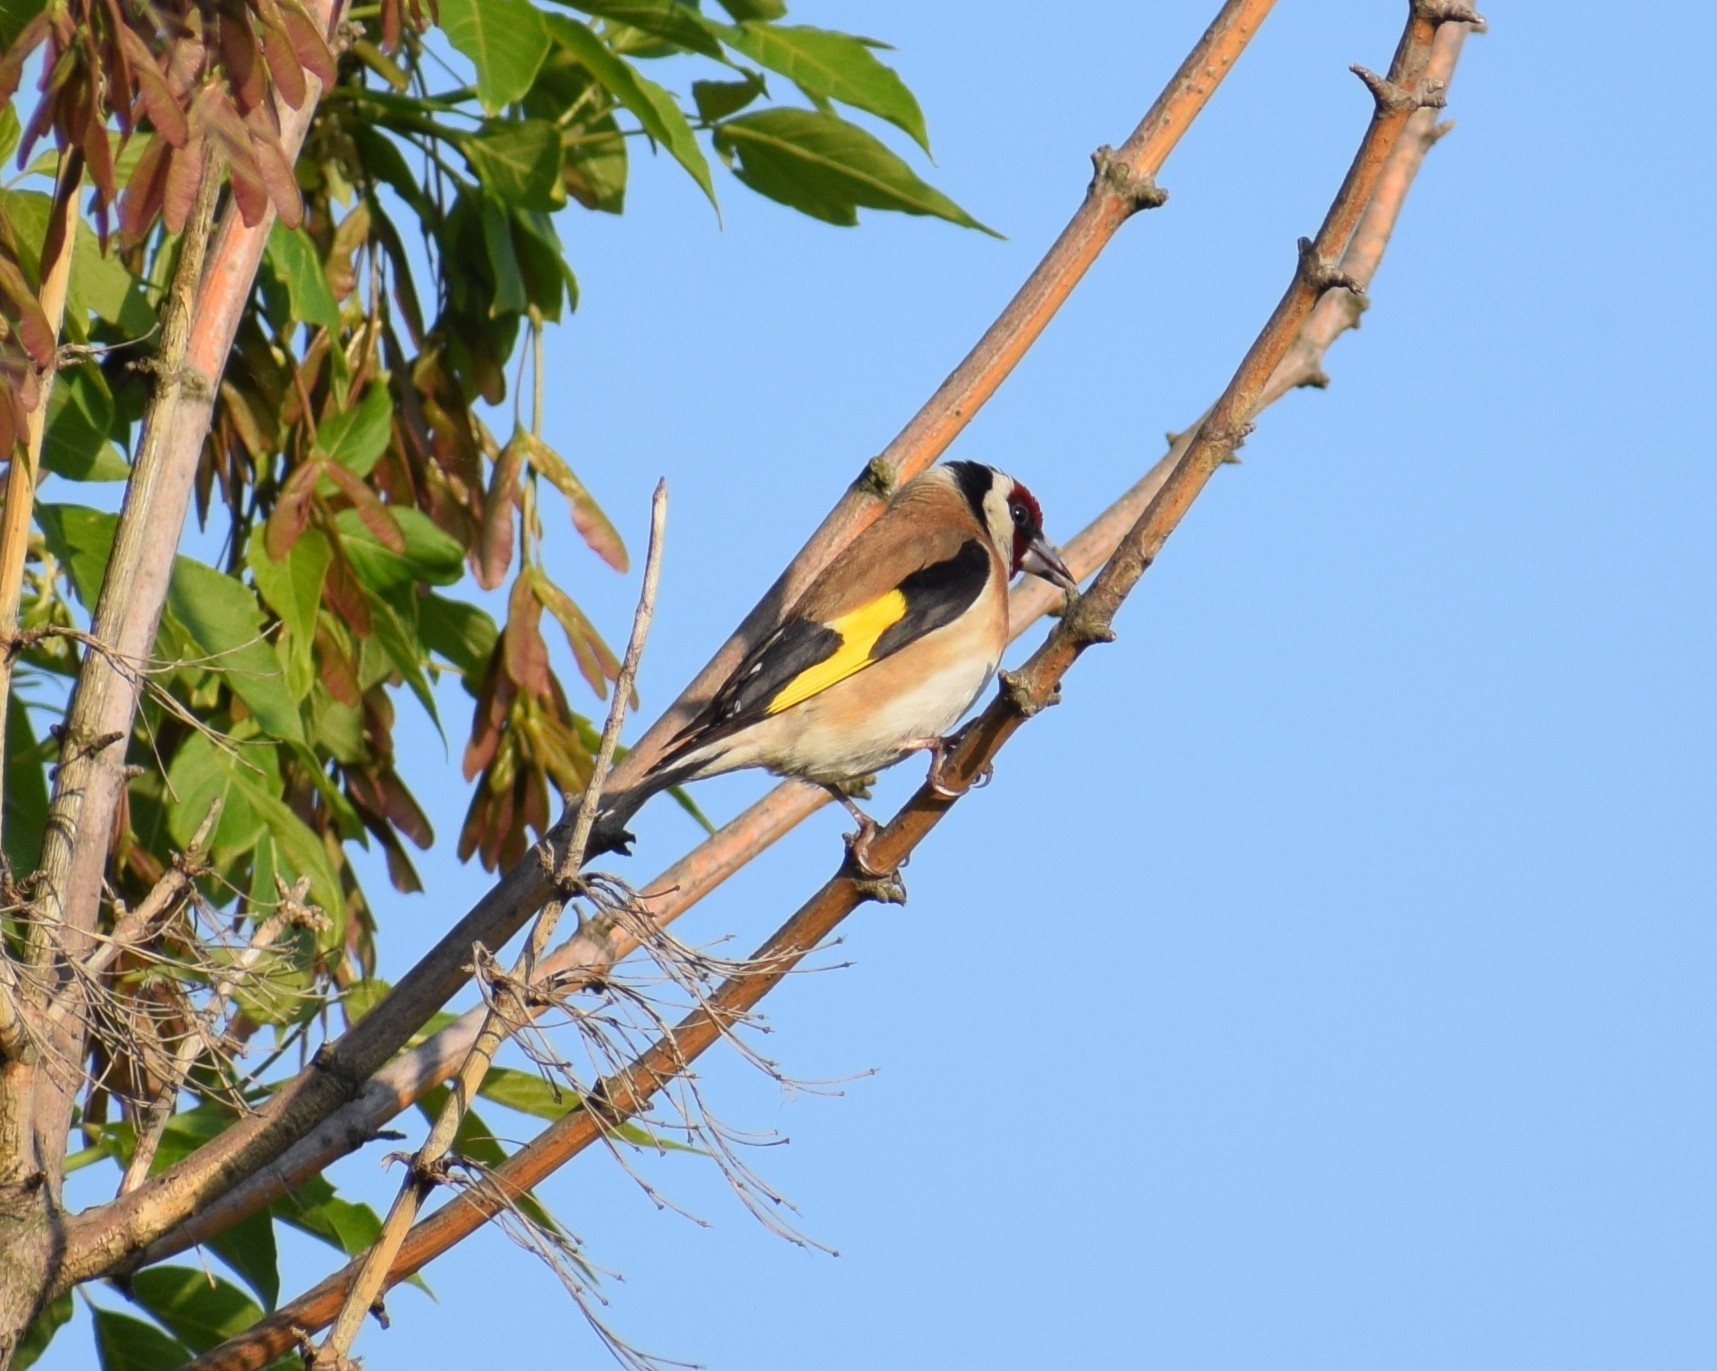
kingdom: Animalia
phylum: Chordata
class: Aves
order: Passeriformes
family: Fringillidae
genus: Carduelis
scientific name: Carduelis carduelis
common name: European goldfinch
